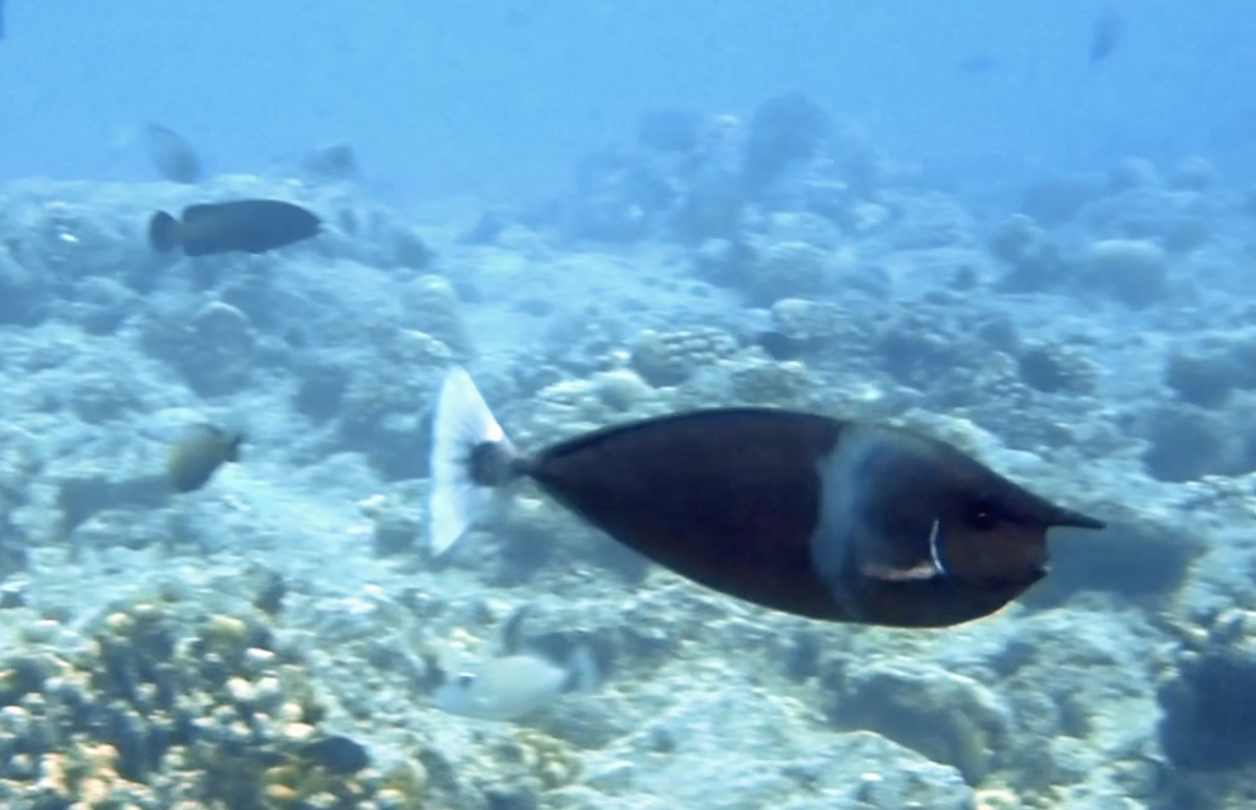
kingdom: Animalia
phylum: Chordata
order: Perciformes
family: Acanthuridae
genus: Naso
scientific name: Naso brevirostris
